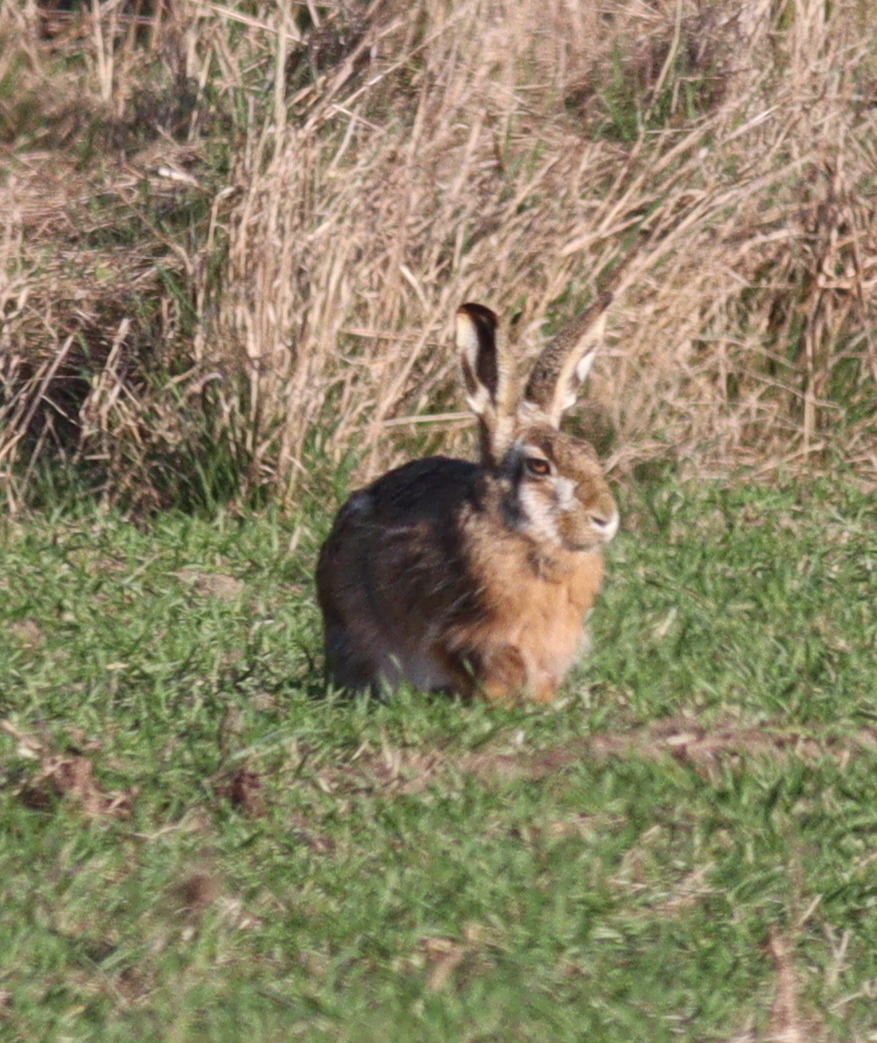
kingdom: Animalia
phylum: Chordata
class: Mammalia
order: Lagomorpha
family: Leporidae
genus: Lepus
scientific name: Lepus europaeus
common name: European hare
